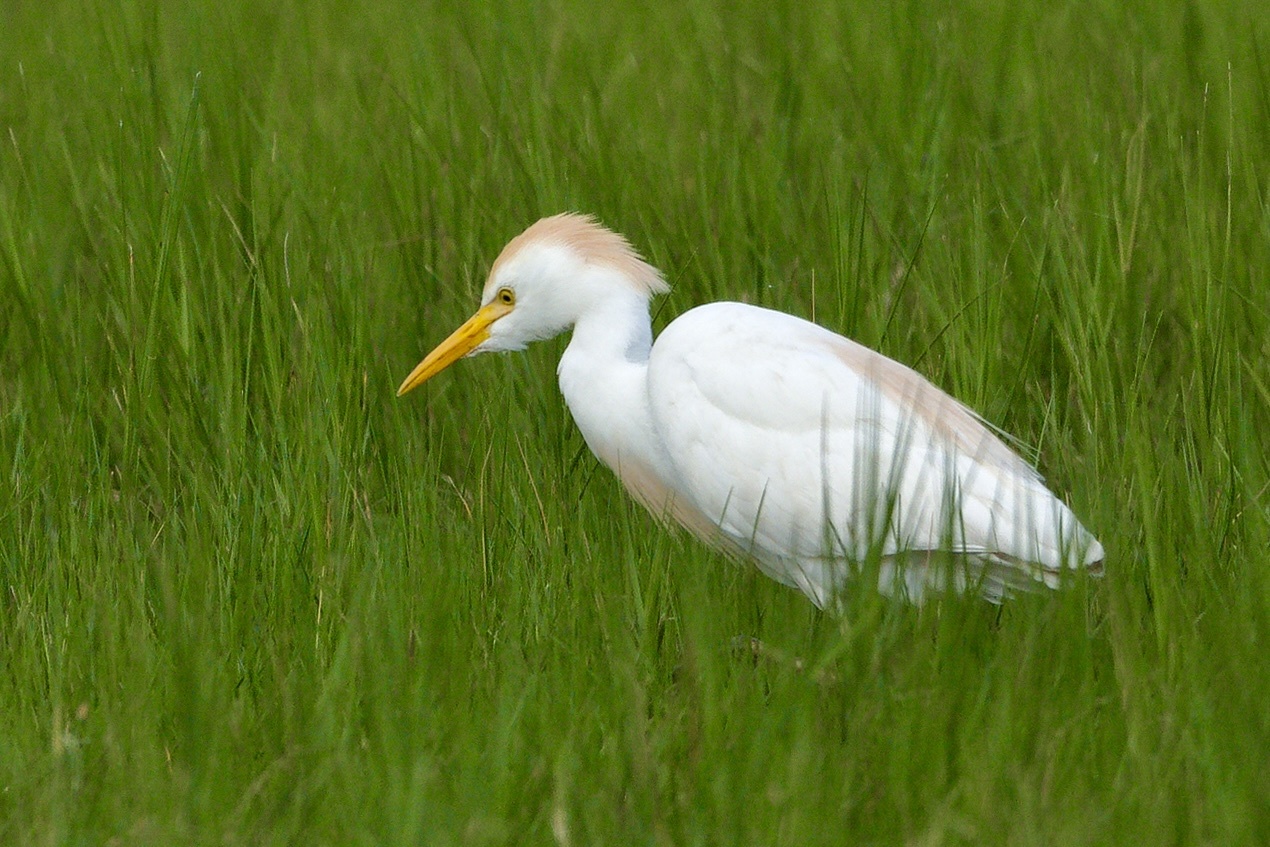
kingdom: Animalia
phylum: Chordata
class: Aves
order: Pelecaniformes
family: Ardeidae
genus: Bubulcus
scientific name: Bubulcus ibis
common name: Cattle egret
